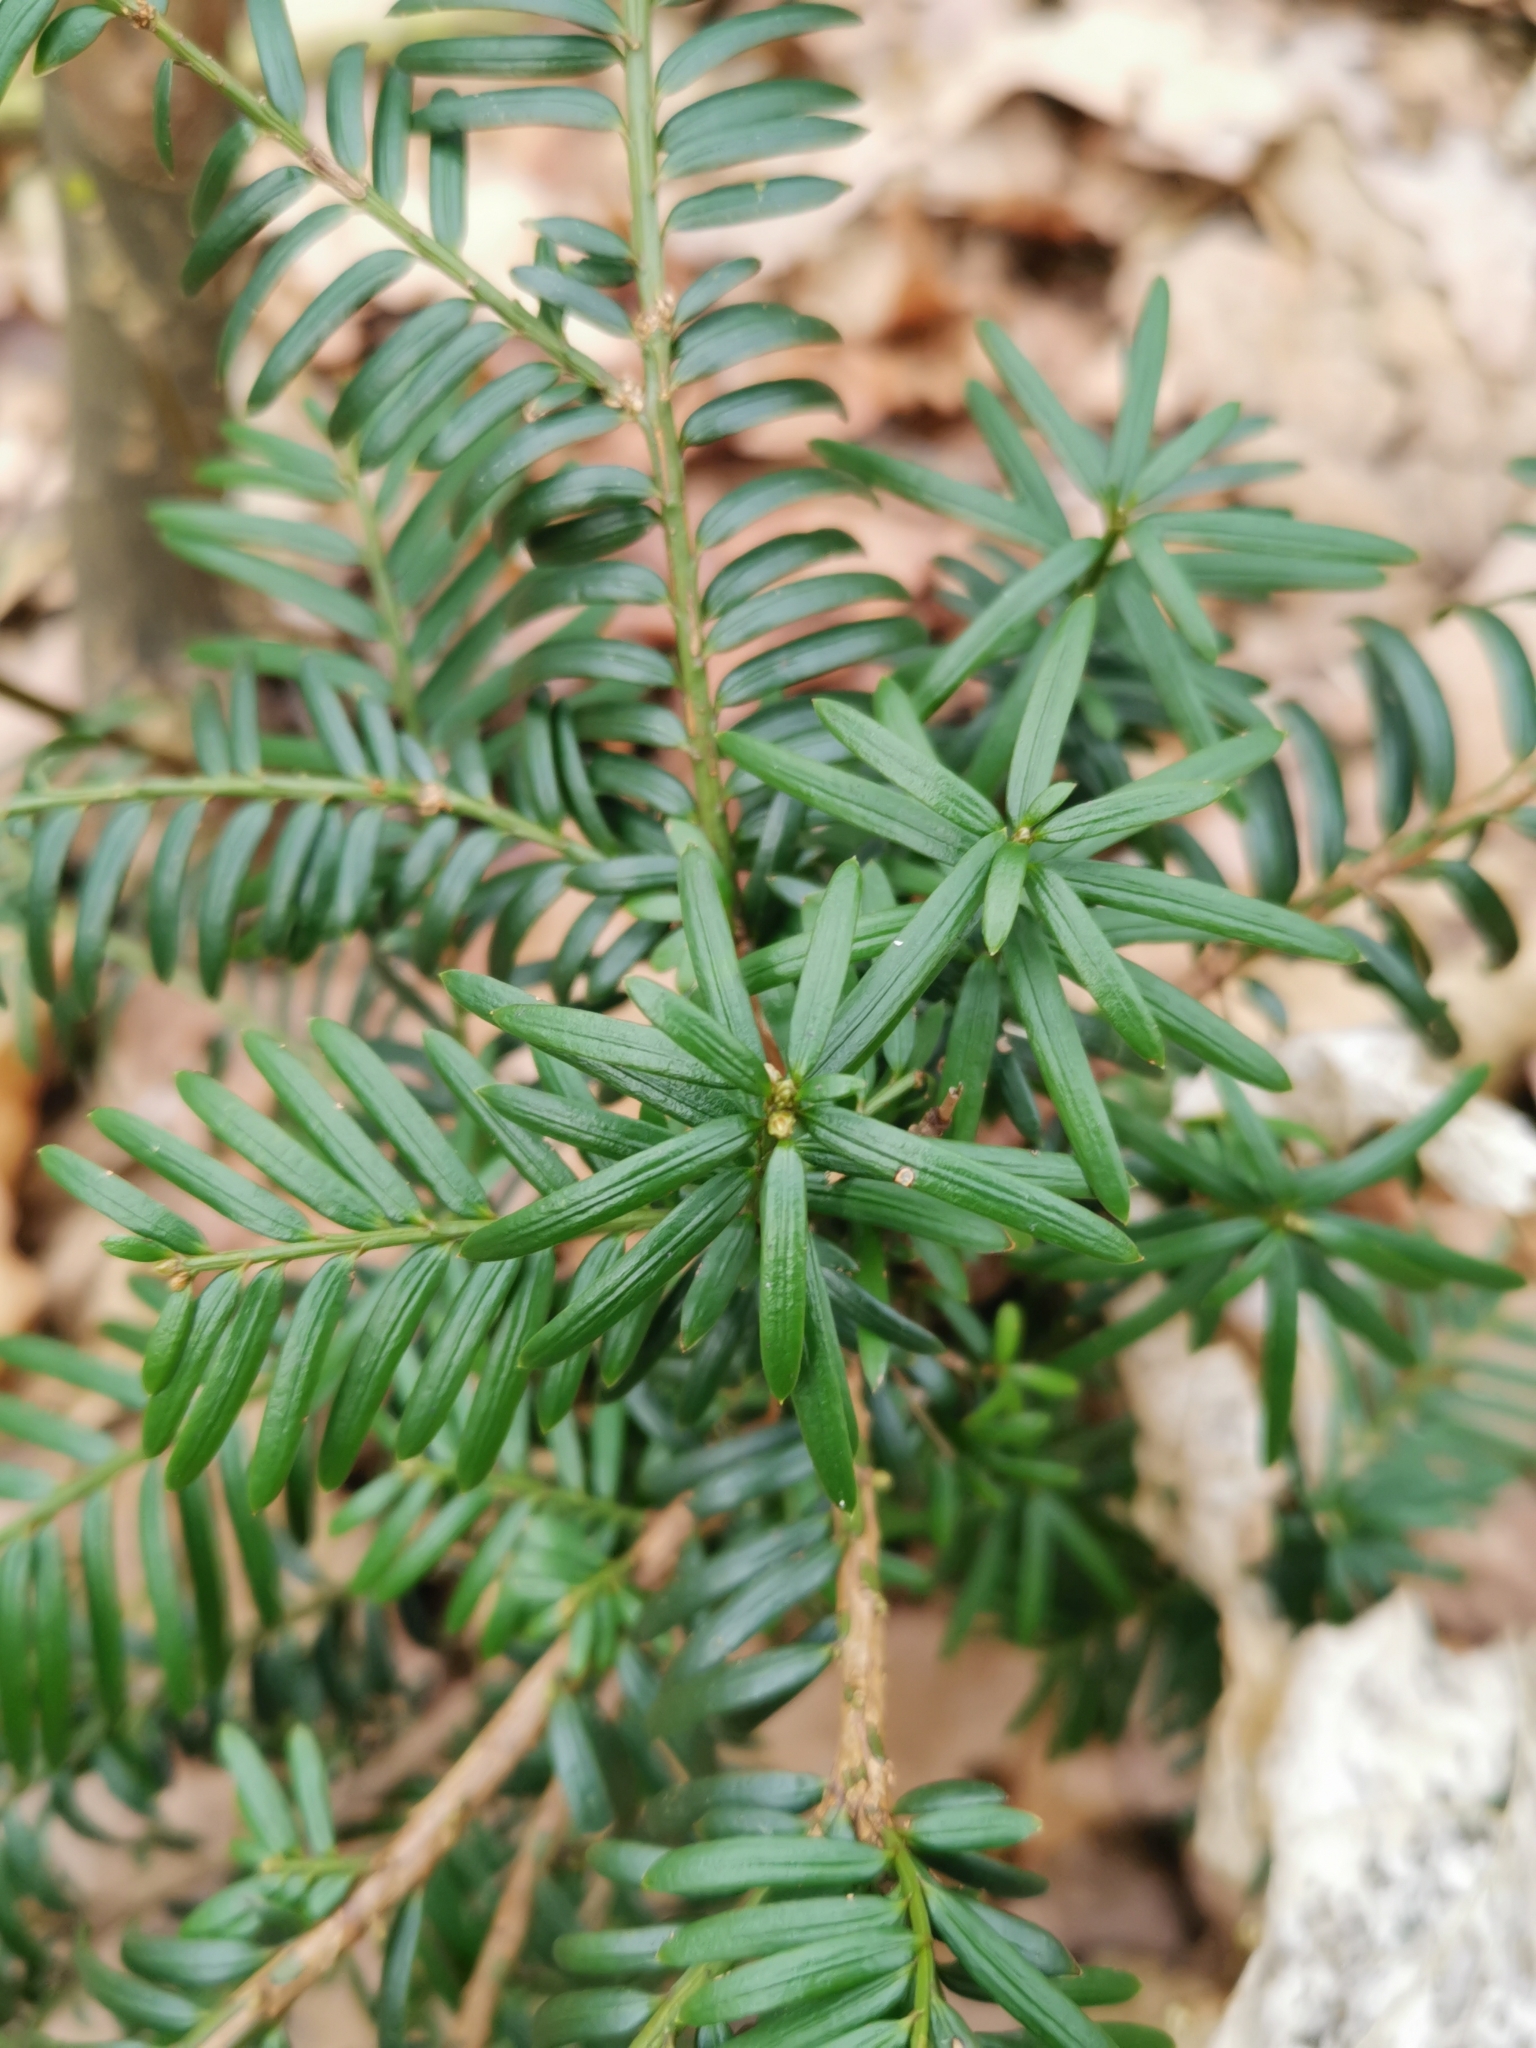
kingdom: Plantae
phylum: Tracheophyta
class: Pinopsida
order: Pinales
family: Taxaceae
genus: Taxus
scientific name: Taxus baccata
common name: Yew
